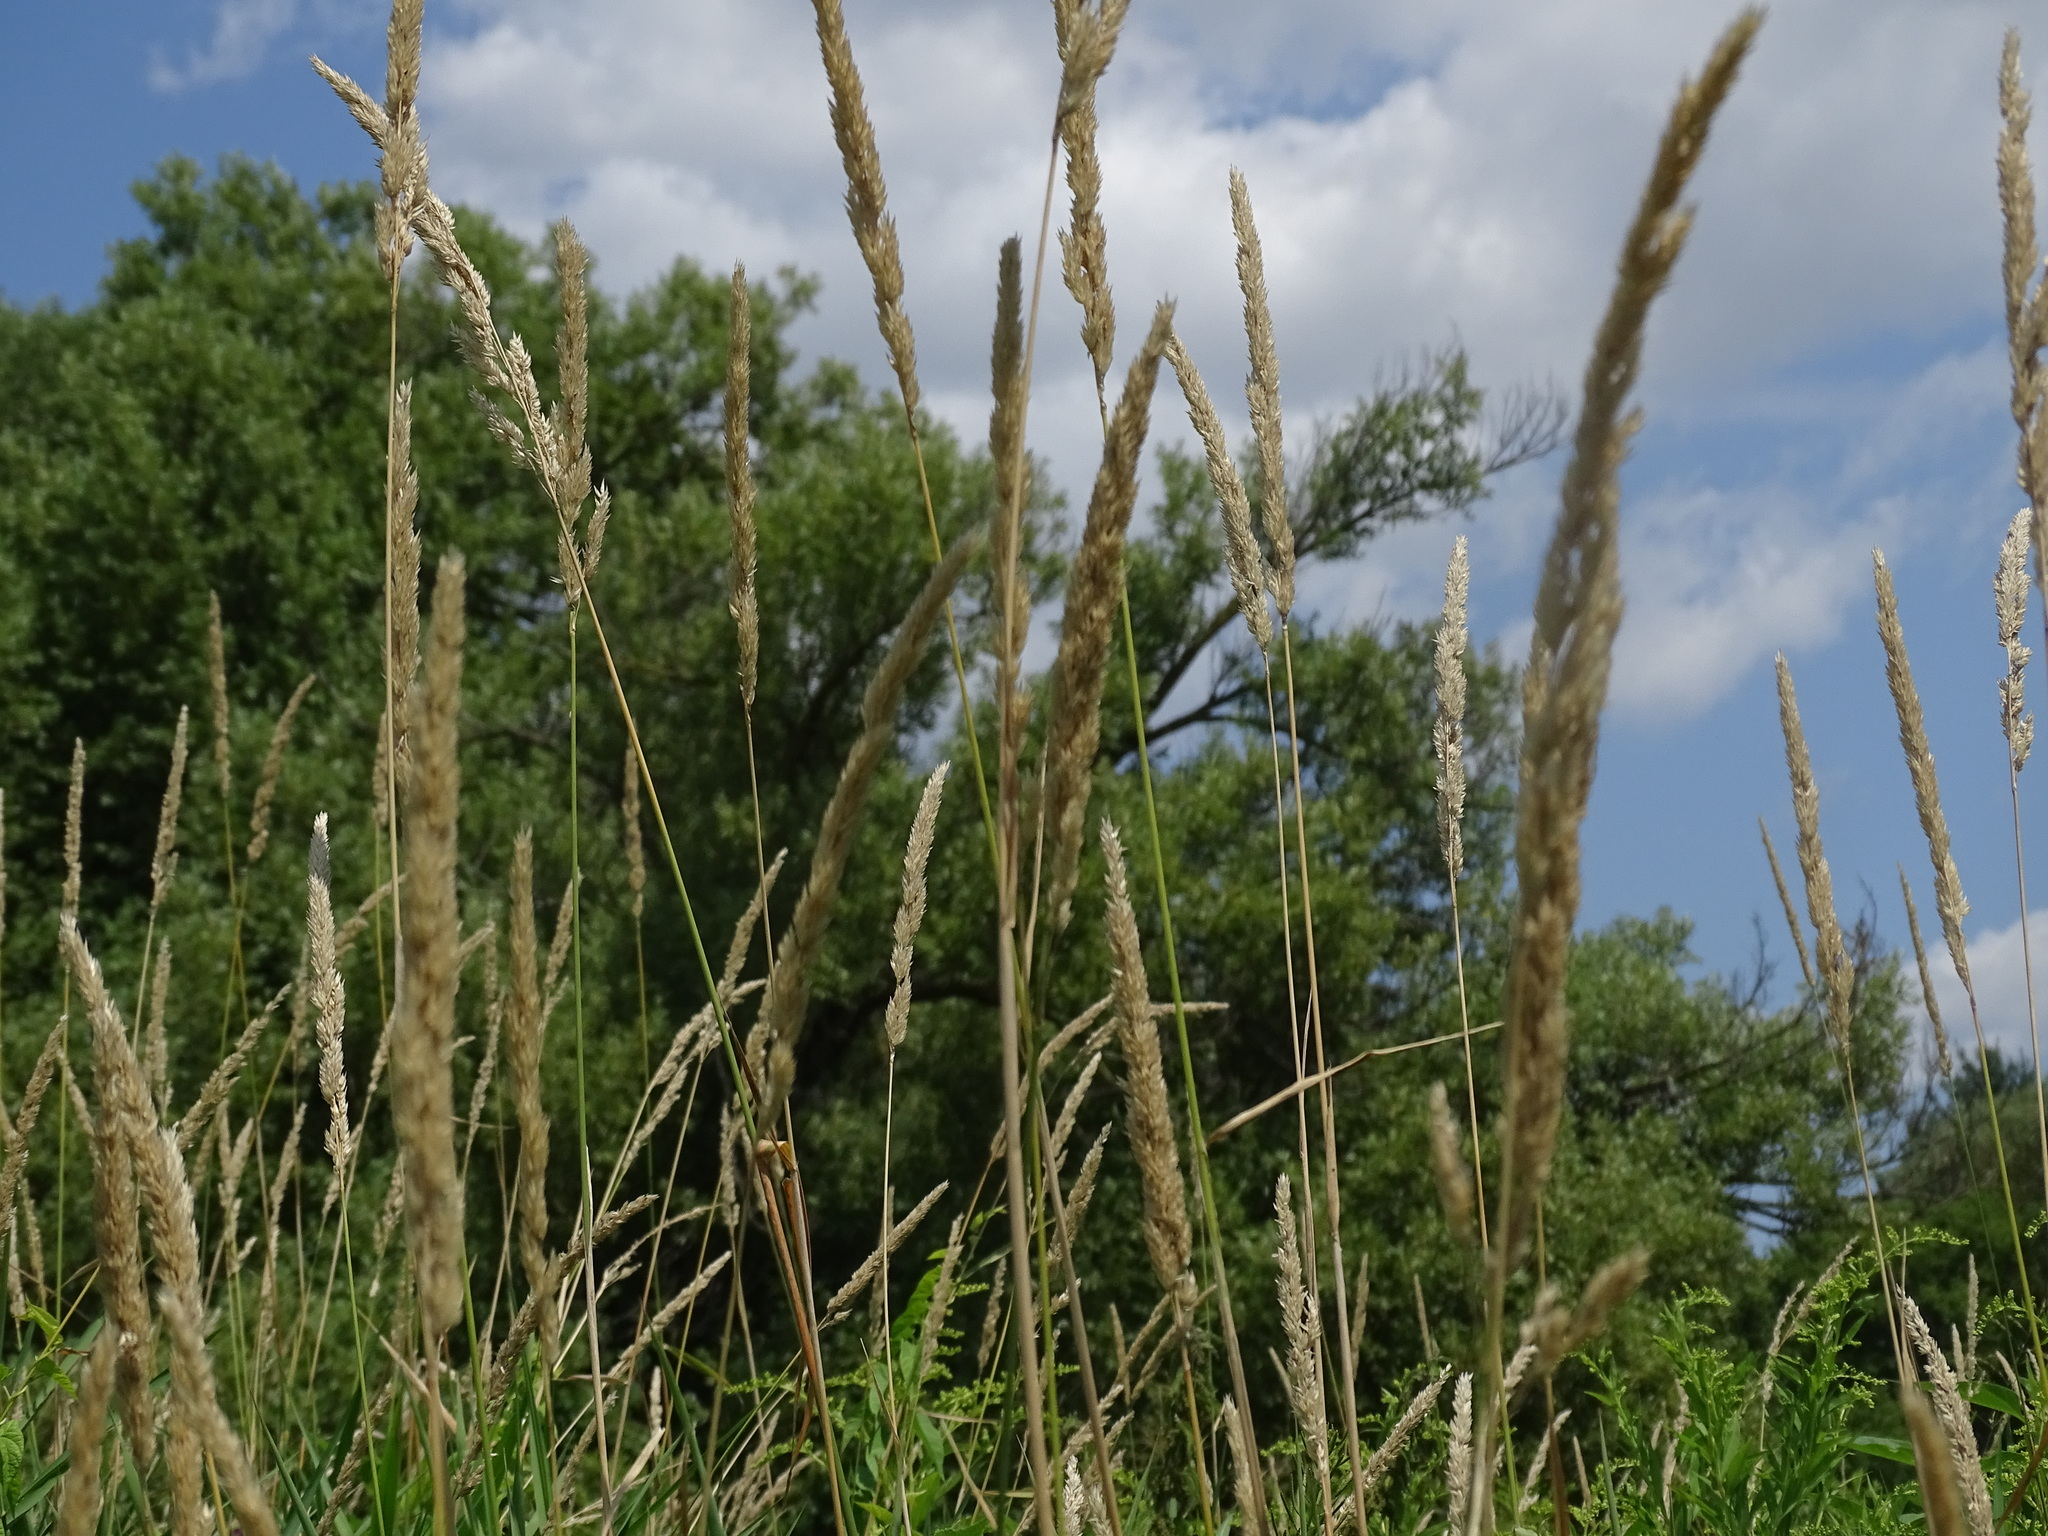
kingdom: Plantae
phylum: Tracheophyta
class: Liliopsida
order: Poales
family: Poaceae
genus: Phalaris
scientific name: Phalaris arundinacea
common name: Reed canary-grass
